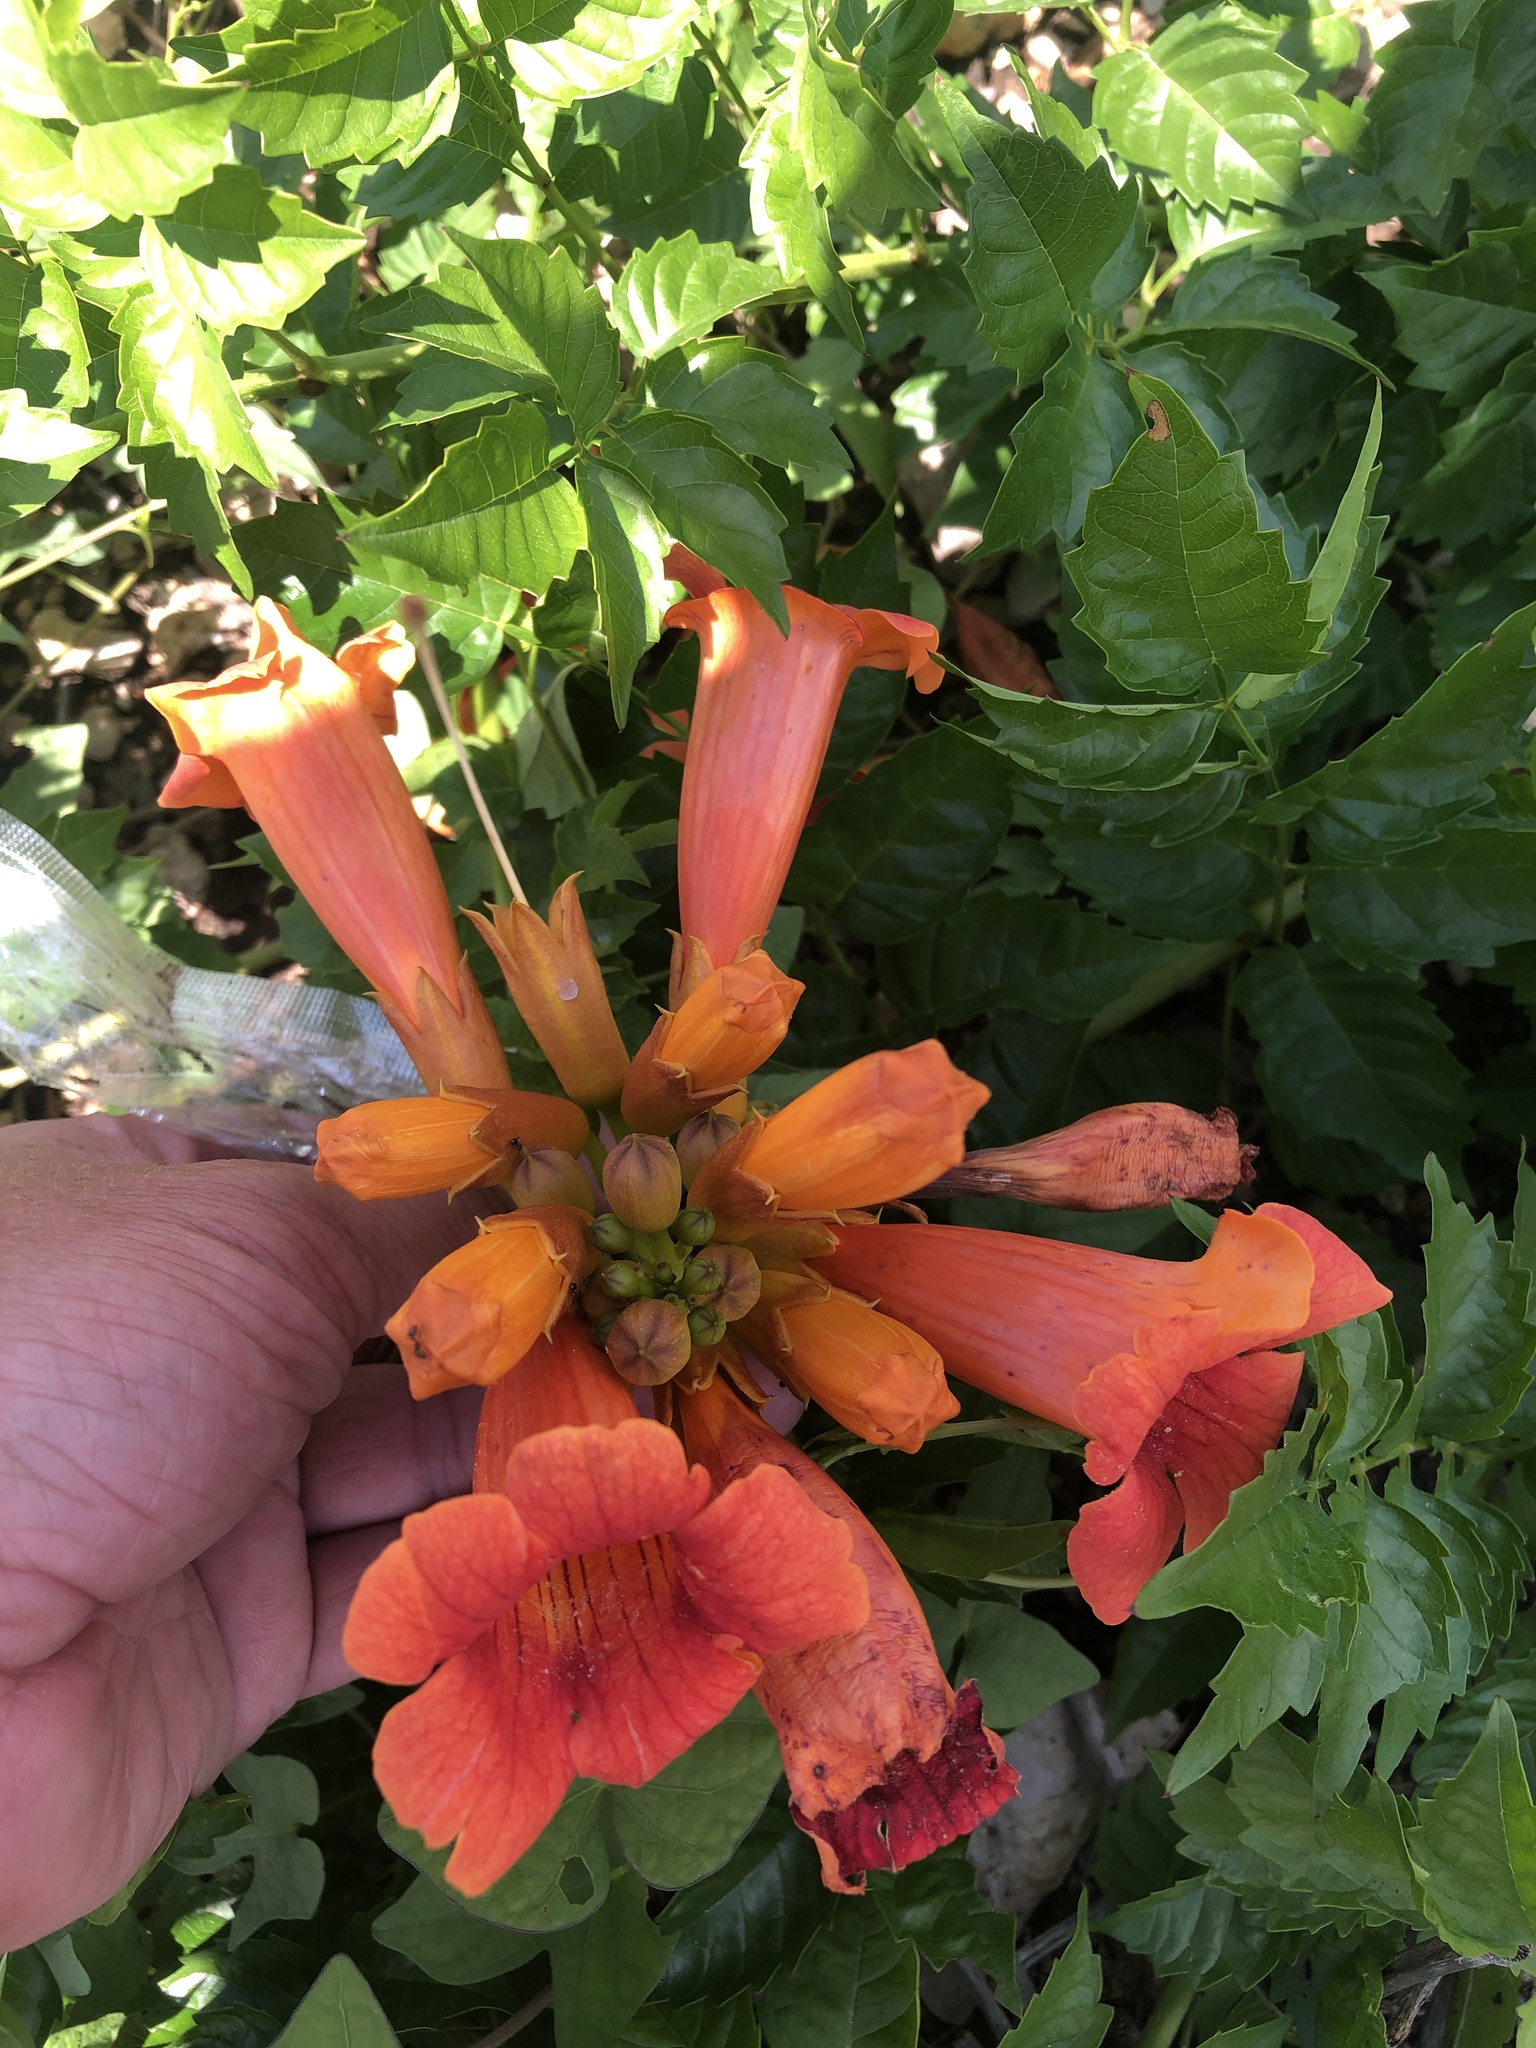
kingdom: Plantae
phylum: Tracheophyta
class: Magnoliopsida
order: Lamiales
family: Bignoniaceae
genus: Campsis
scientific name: Campsis radicans
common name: Trumpet-creeper
